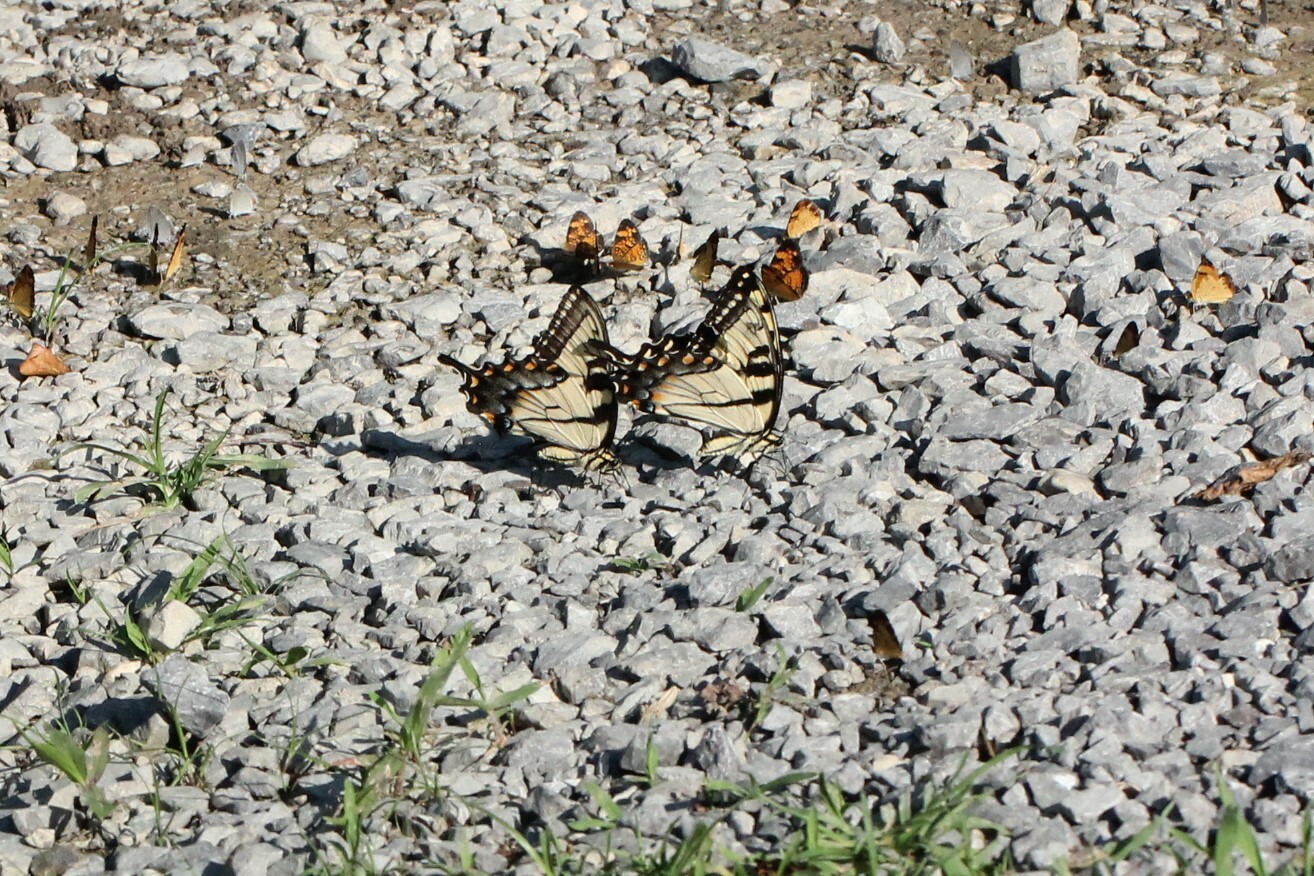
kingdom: Animalia
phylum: Arthropoda
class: Insecta
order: Lepidoptera
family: Papilionidae
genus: Papilio
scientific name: Papilio glaucus
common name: Tiger swallowtail
